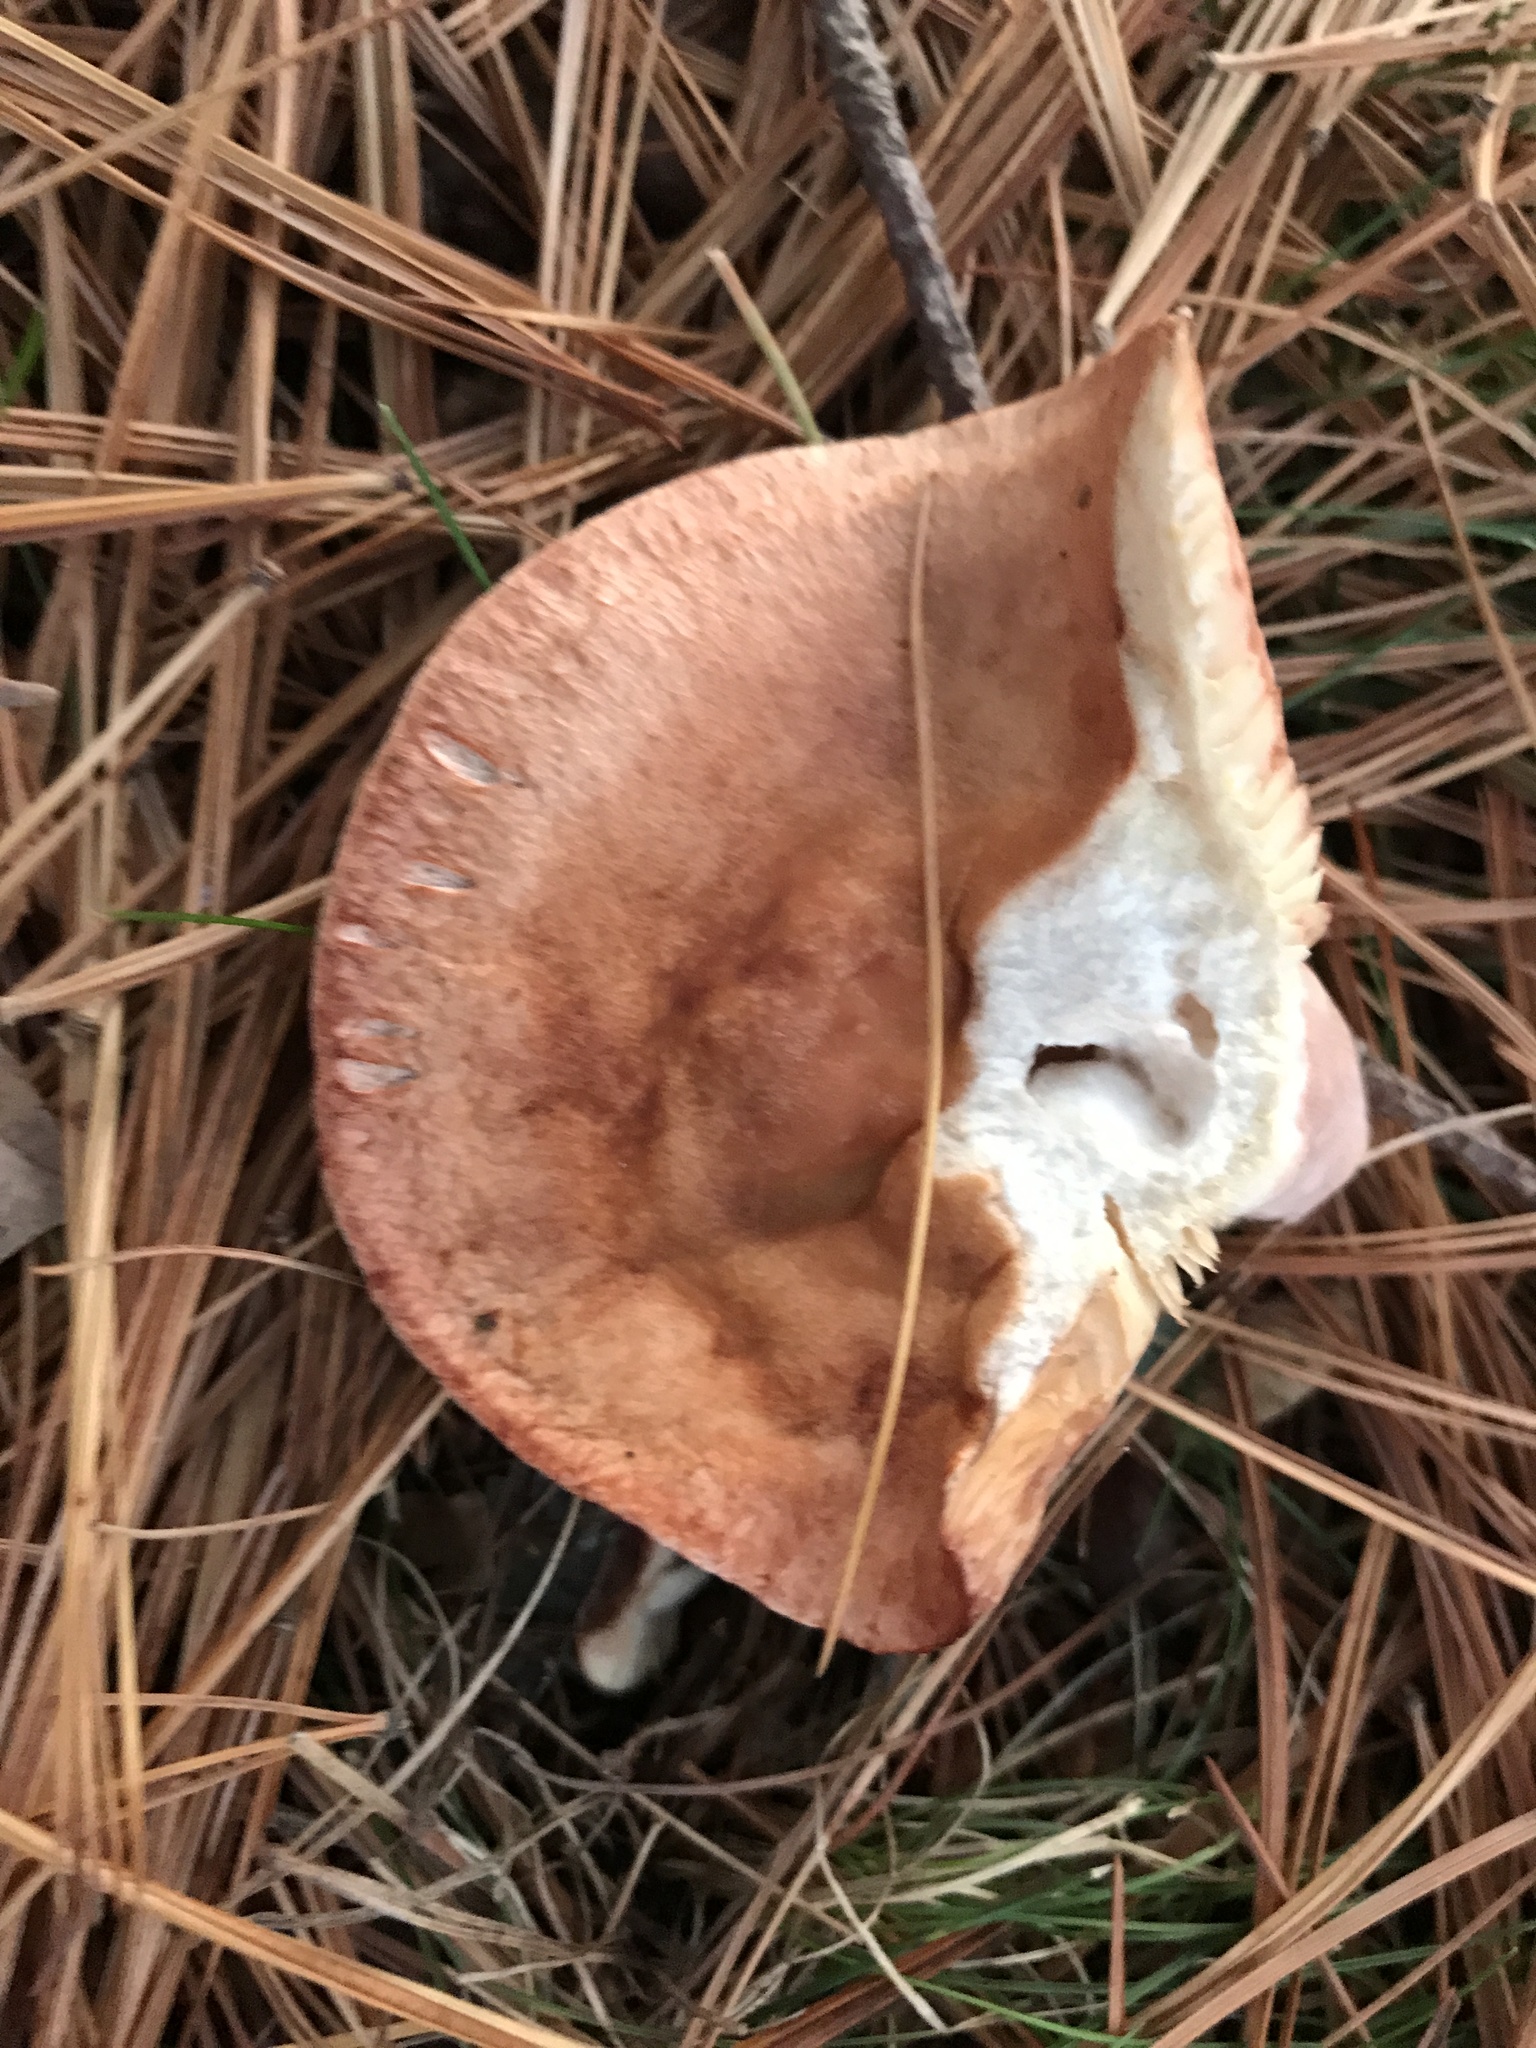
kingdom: Fungi
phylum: Basidiomycota
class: Agaricomycetes
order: Russulales
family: Russulaceae
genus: Lactarius
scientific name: Lactarius vinaceorufescens
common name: Yellow-latex milkcap
